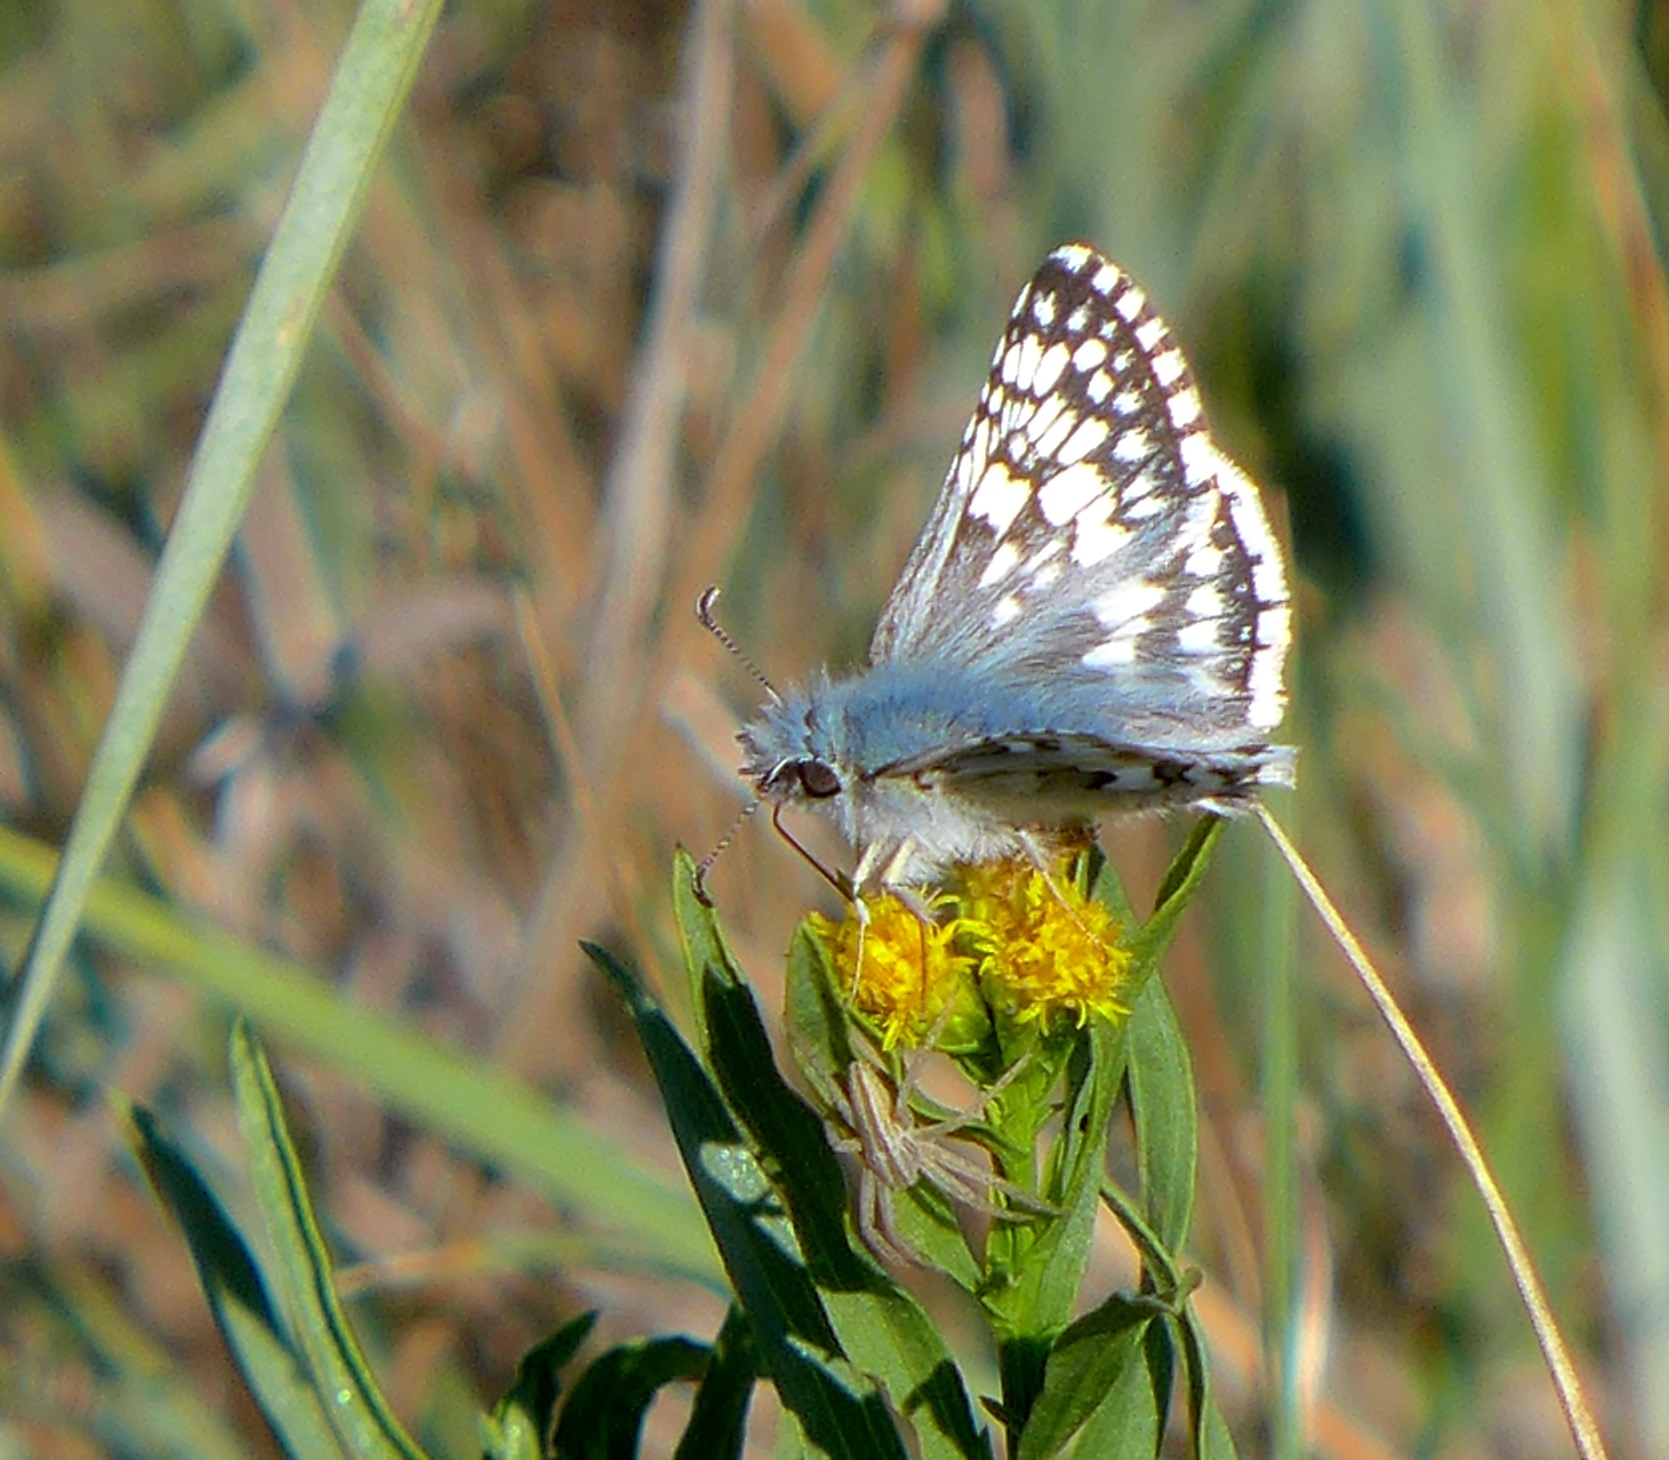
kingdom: Animalia
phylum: Arthropoda
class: Insecta
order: Lepidoptera
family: Hesperiidae
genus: Burnsius
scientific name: Burnsius communis
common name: Common checkered-skipper
